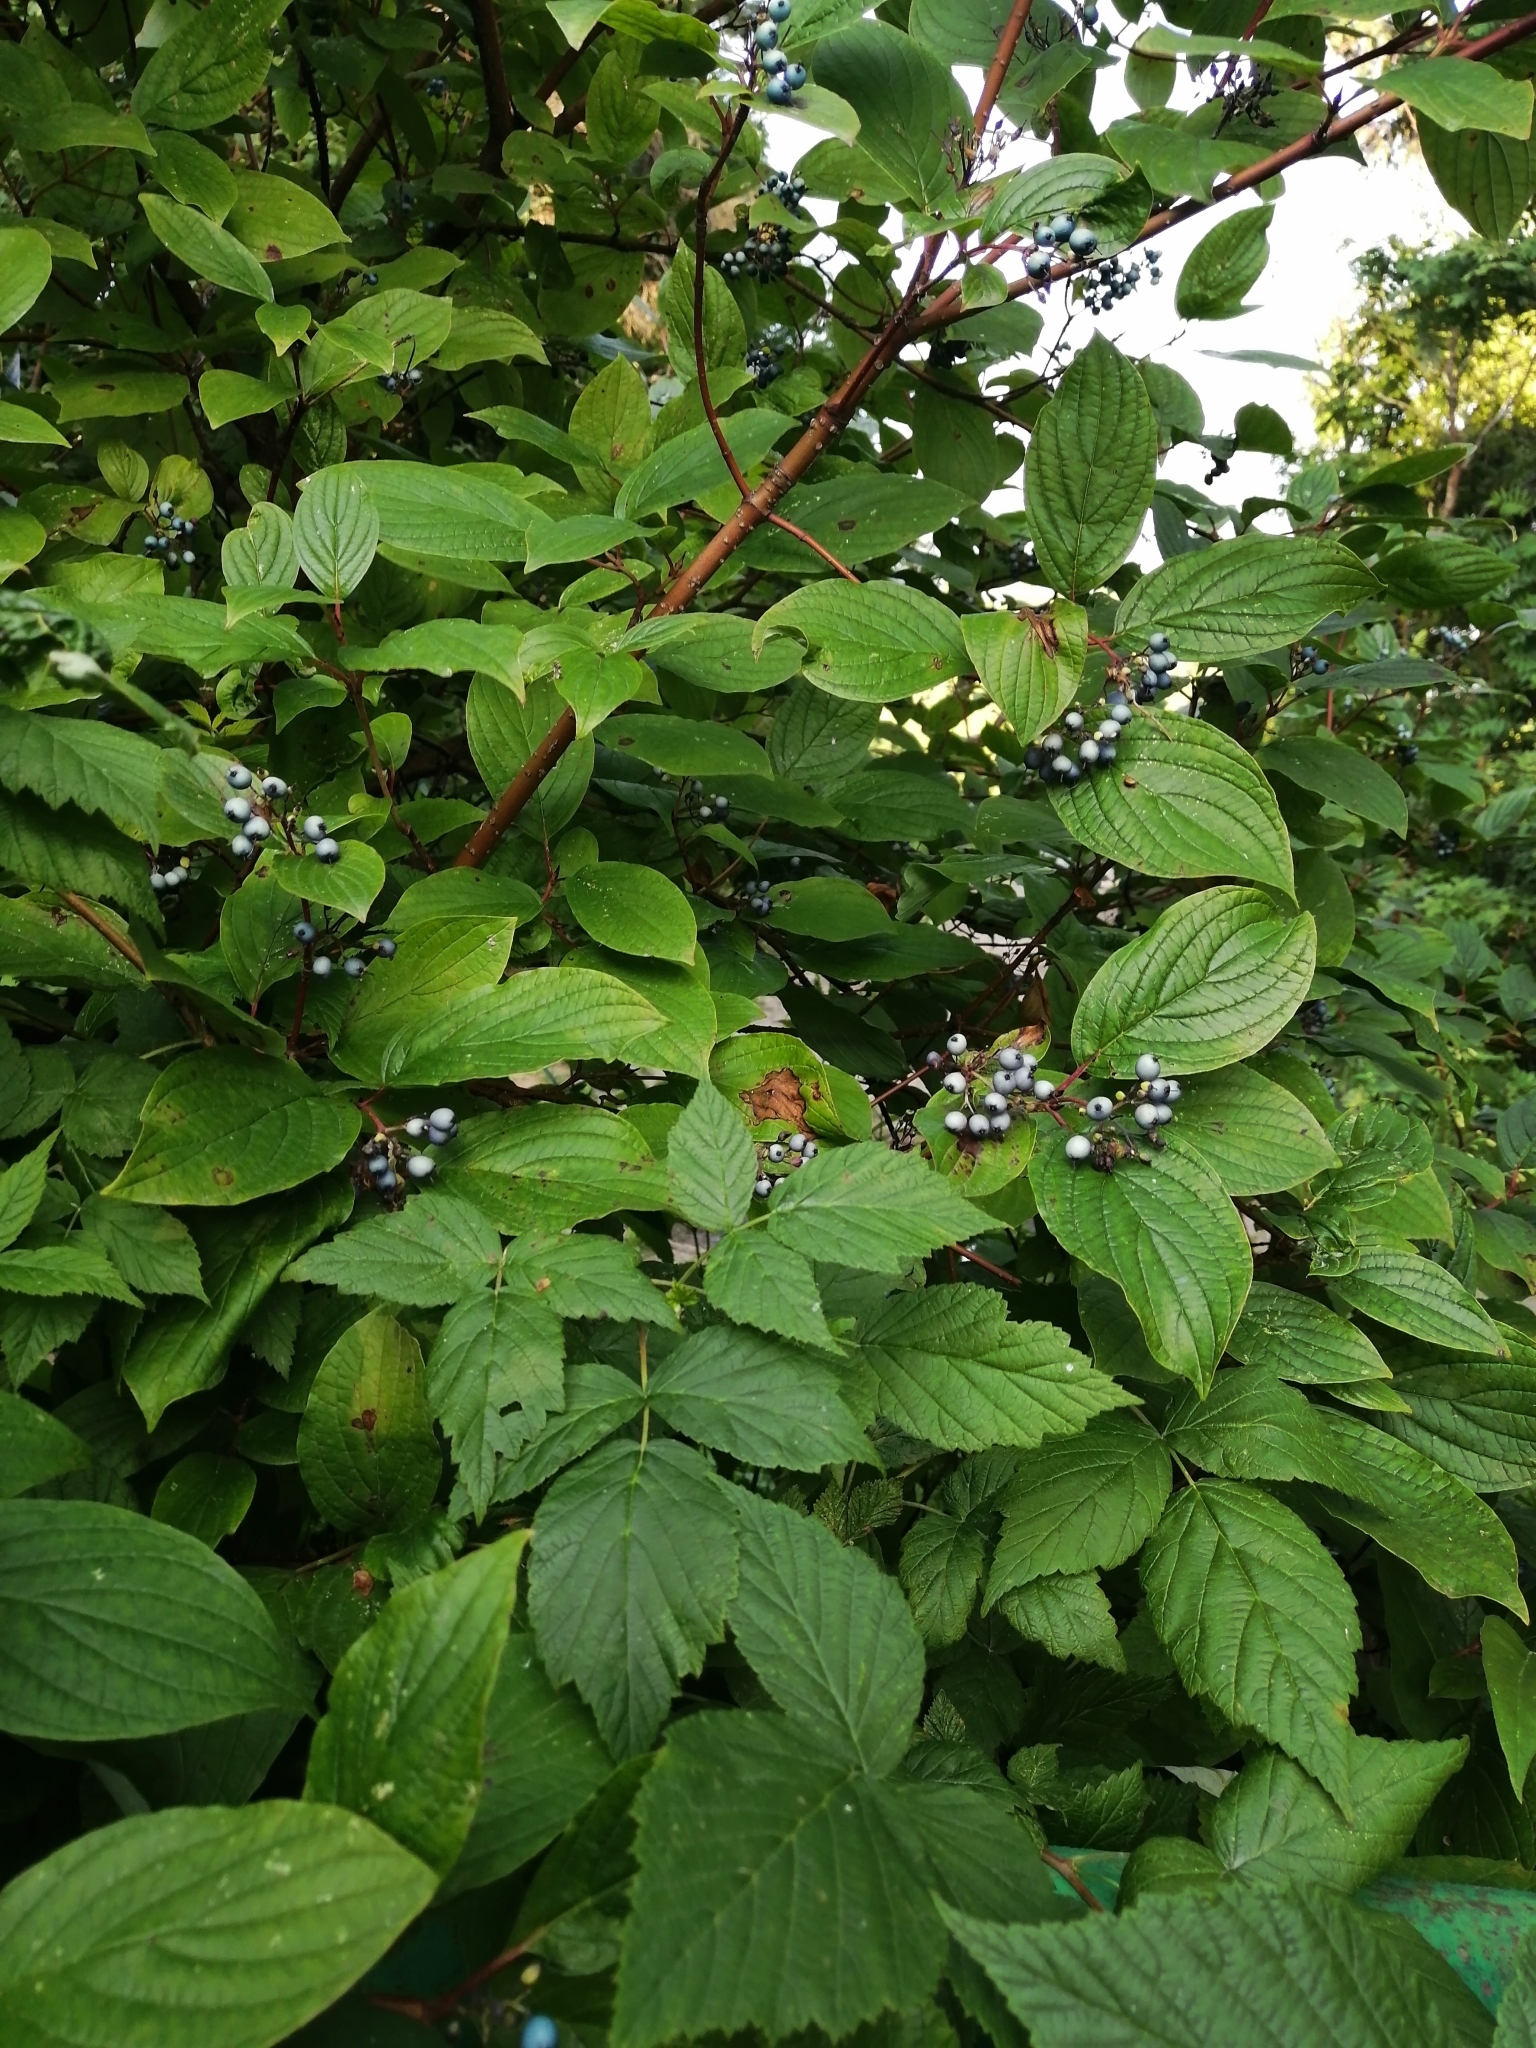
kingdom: Plantae
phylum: Tracheophyta
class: Magnoliopsida
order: Cornales
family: Cornaceae
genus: Cornus
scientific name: Cornus alba
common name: White dogwood
